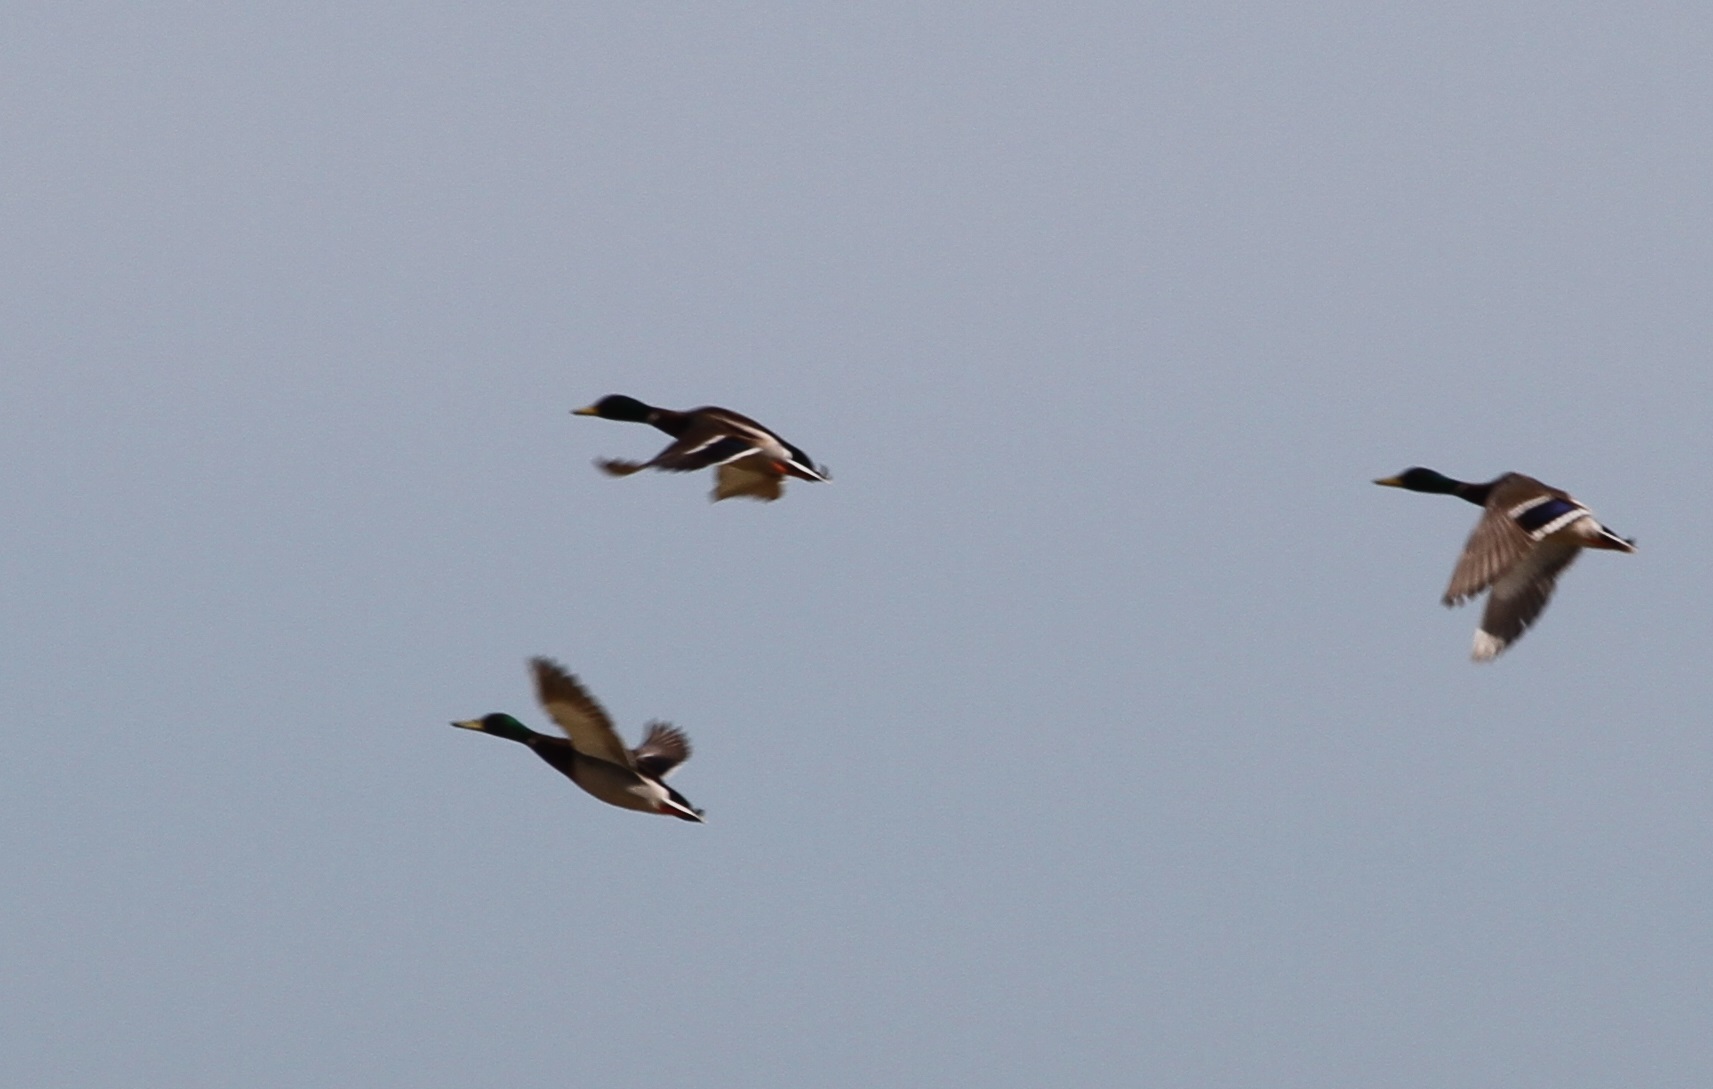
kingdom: Animalia
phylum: Chordata
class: Aves
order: Anseriformes
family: Anatidae
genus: Anas
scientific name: Anas platyrhynchos
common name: Mallard
